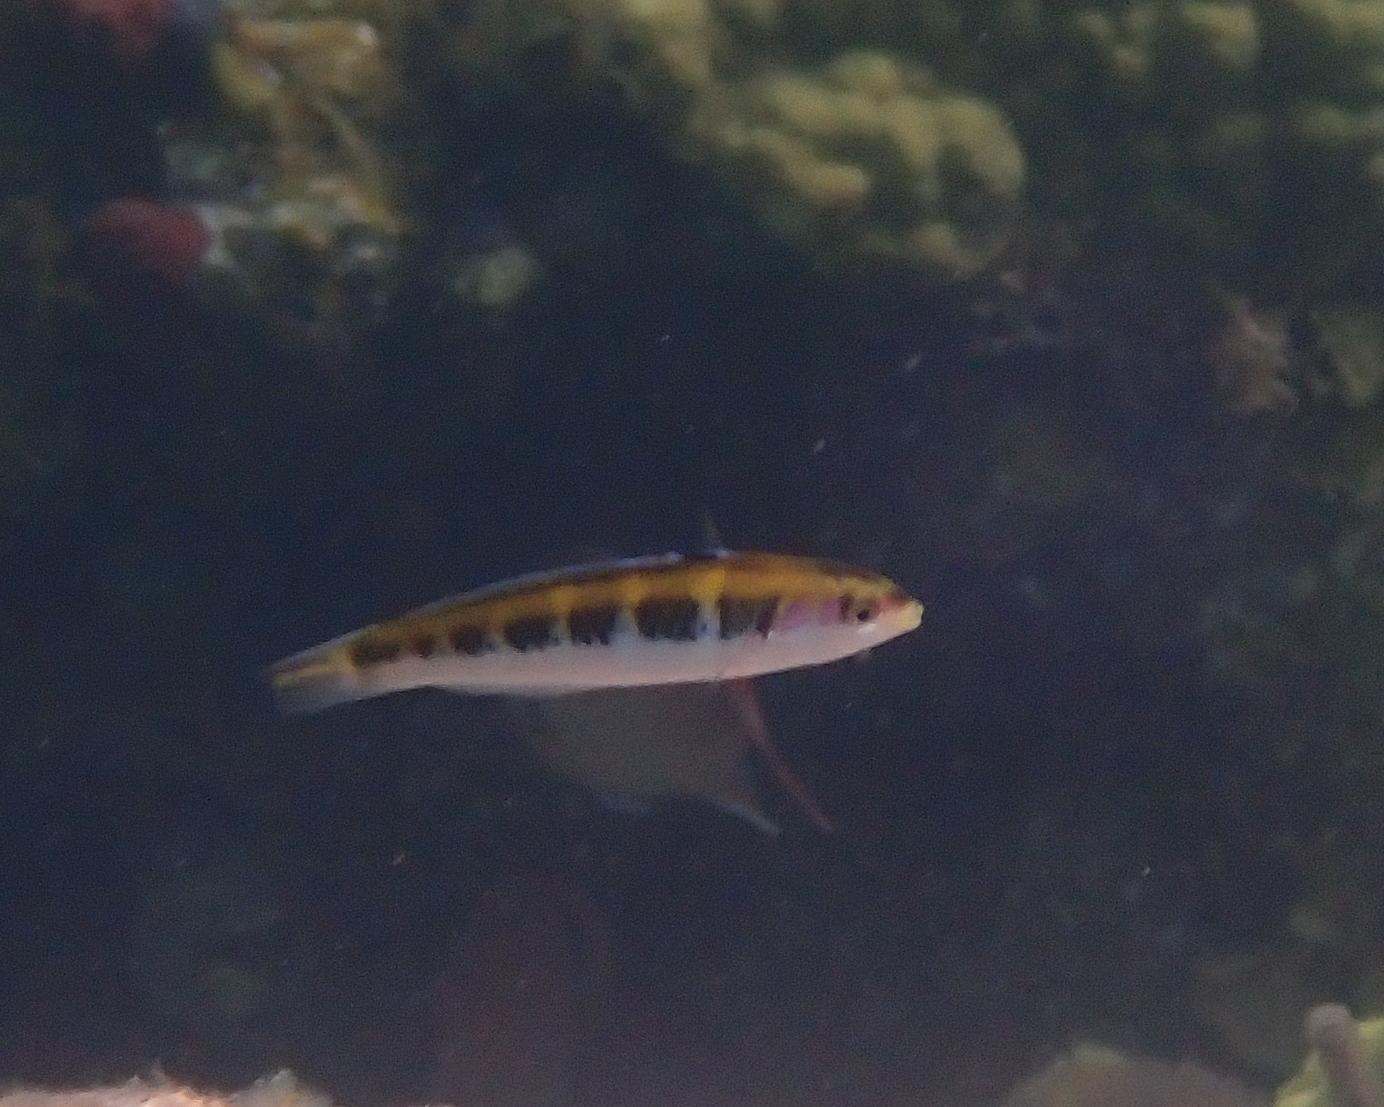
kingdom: Animalia
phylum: Chordata
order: Perciformes
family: Labridae
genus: Thalassoma
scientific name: Thalassoma bifasciatum
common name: Bluehead wrasse
